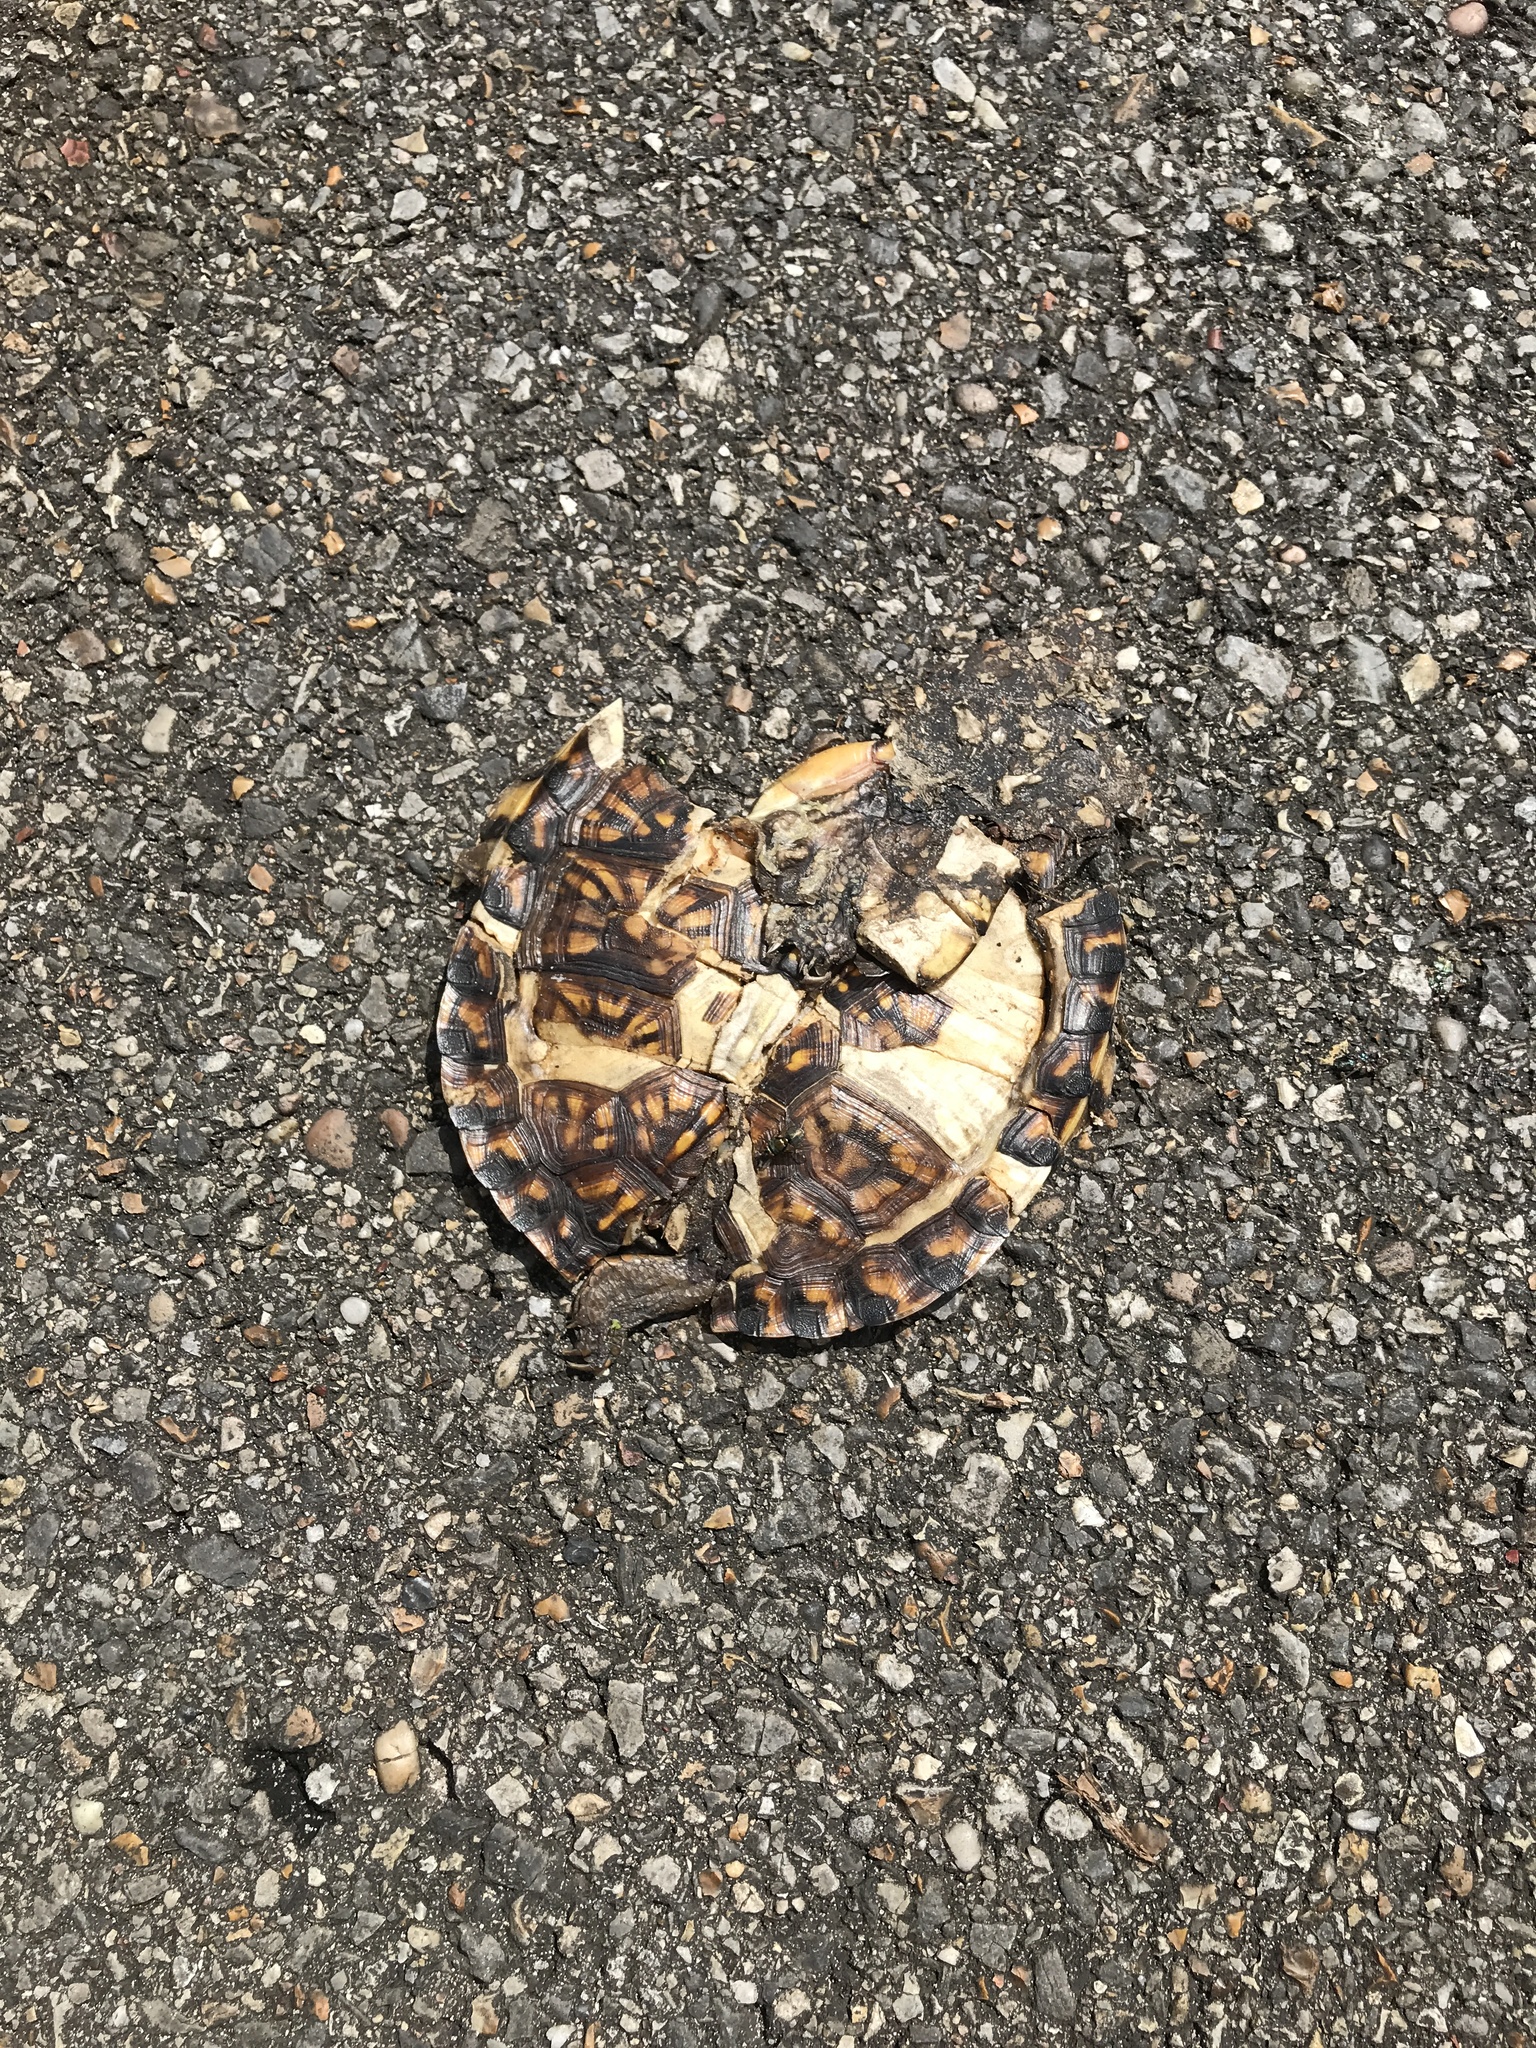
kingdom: Animalia
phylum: Chordata
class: Testudines
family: Emydidae
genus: Terrapene
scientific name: Terrapene carolina
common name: Common box turtle
